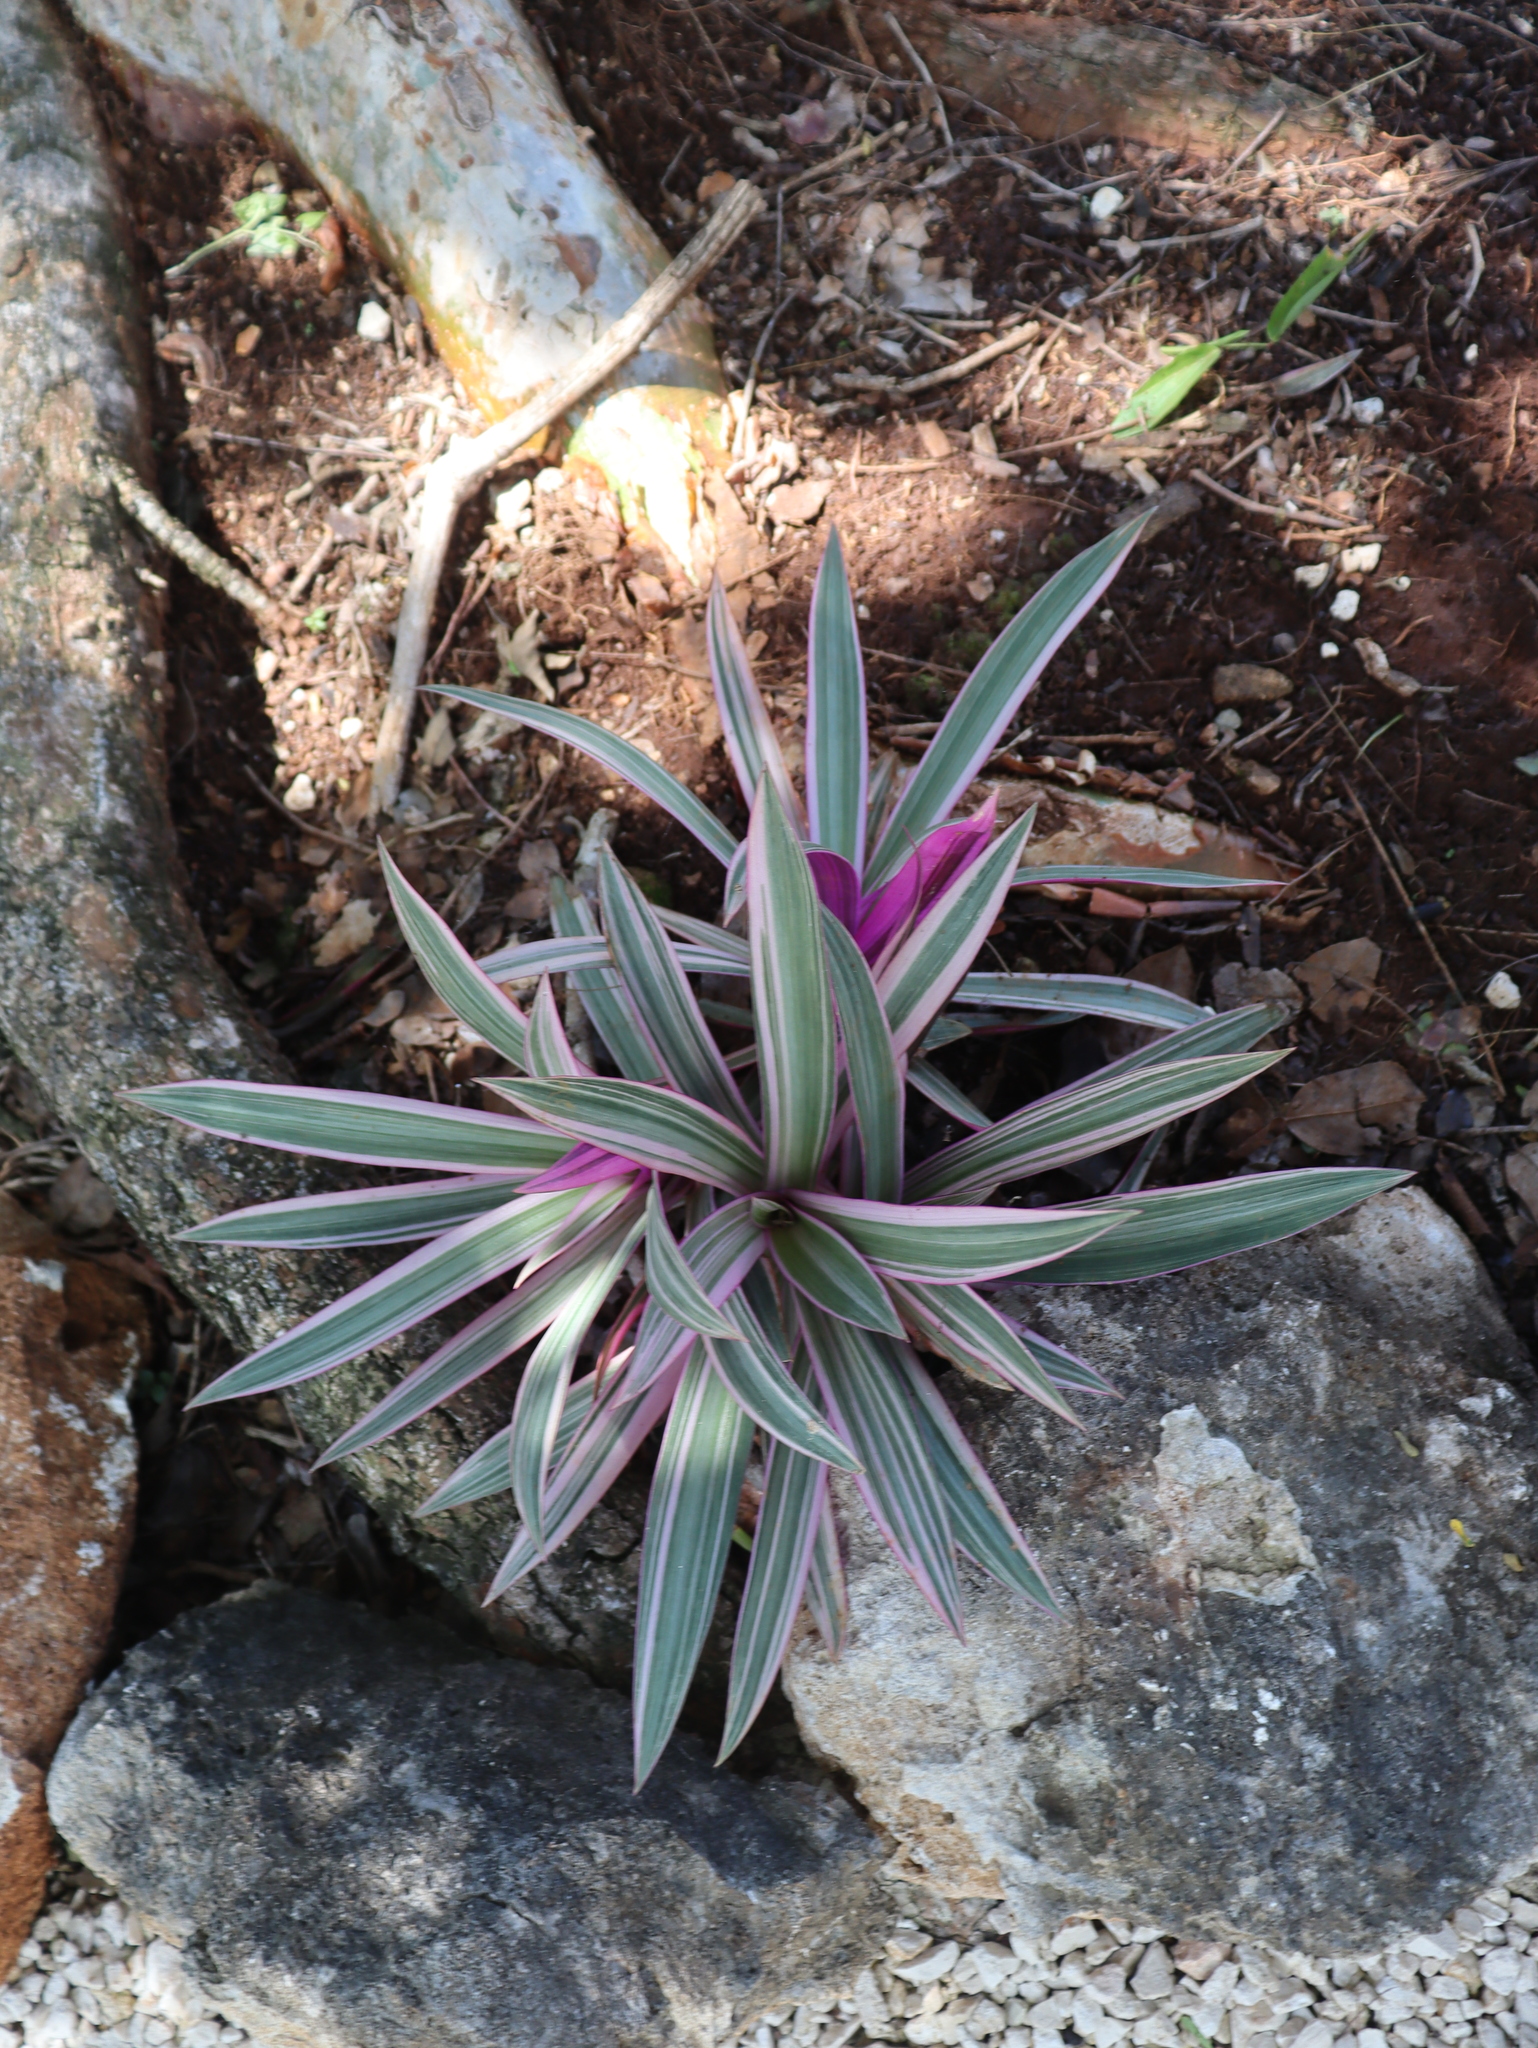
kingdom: Plantae
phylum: Tracheophyta
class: Liliopsida
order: Commelinales
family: Commelinaceae
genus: Tradescantia
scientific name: Tradescantia spathacea
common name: Boatlily
